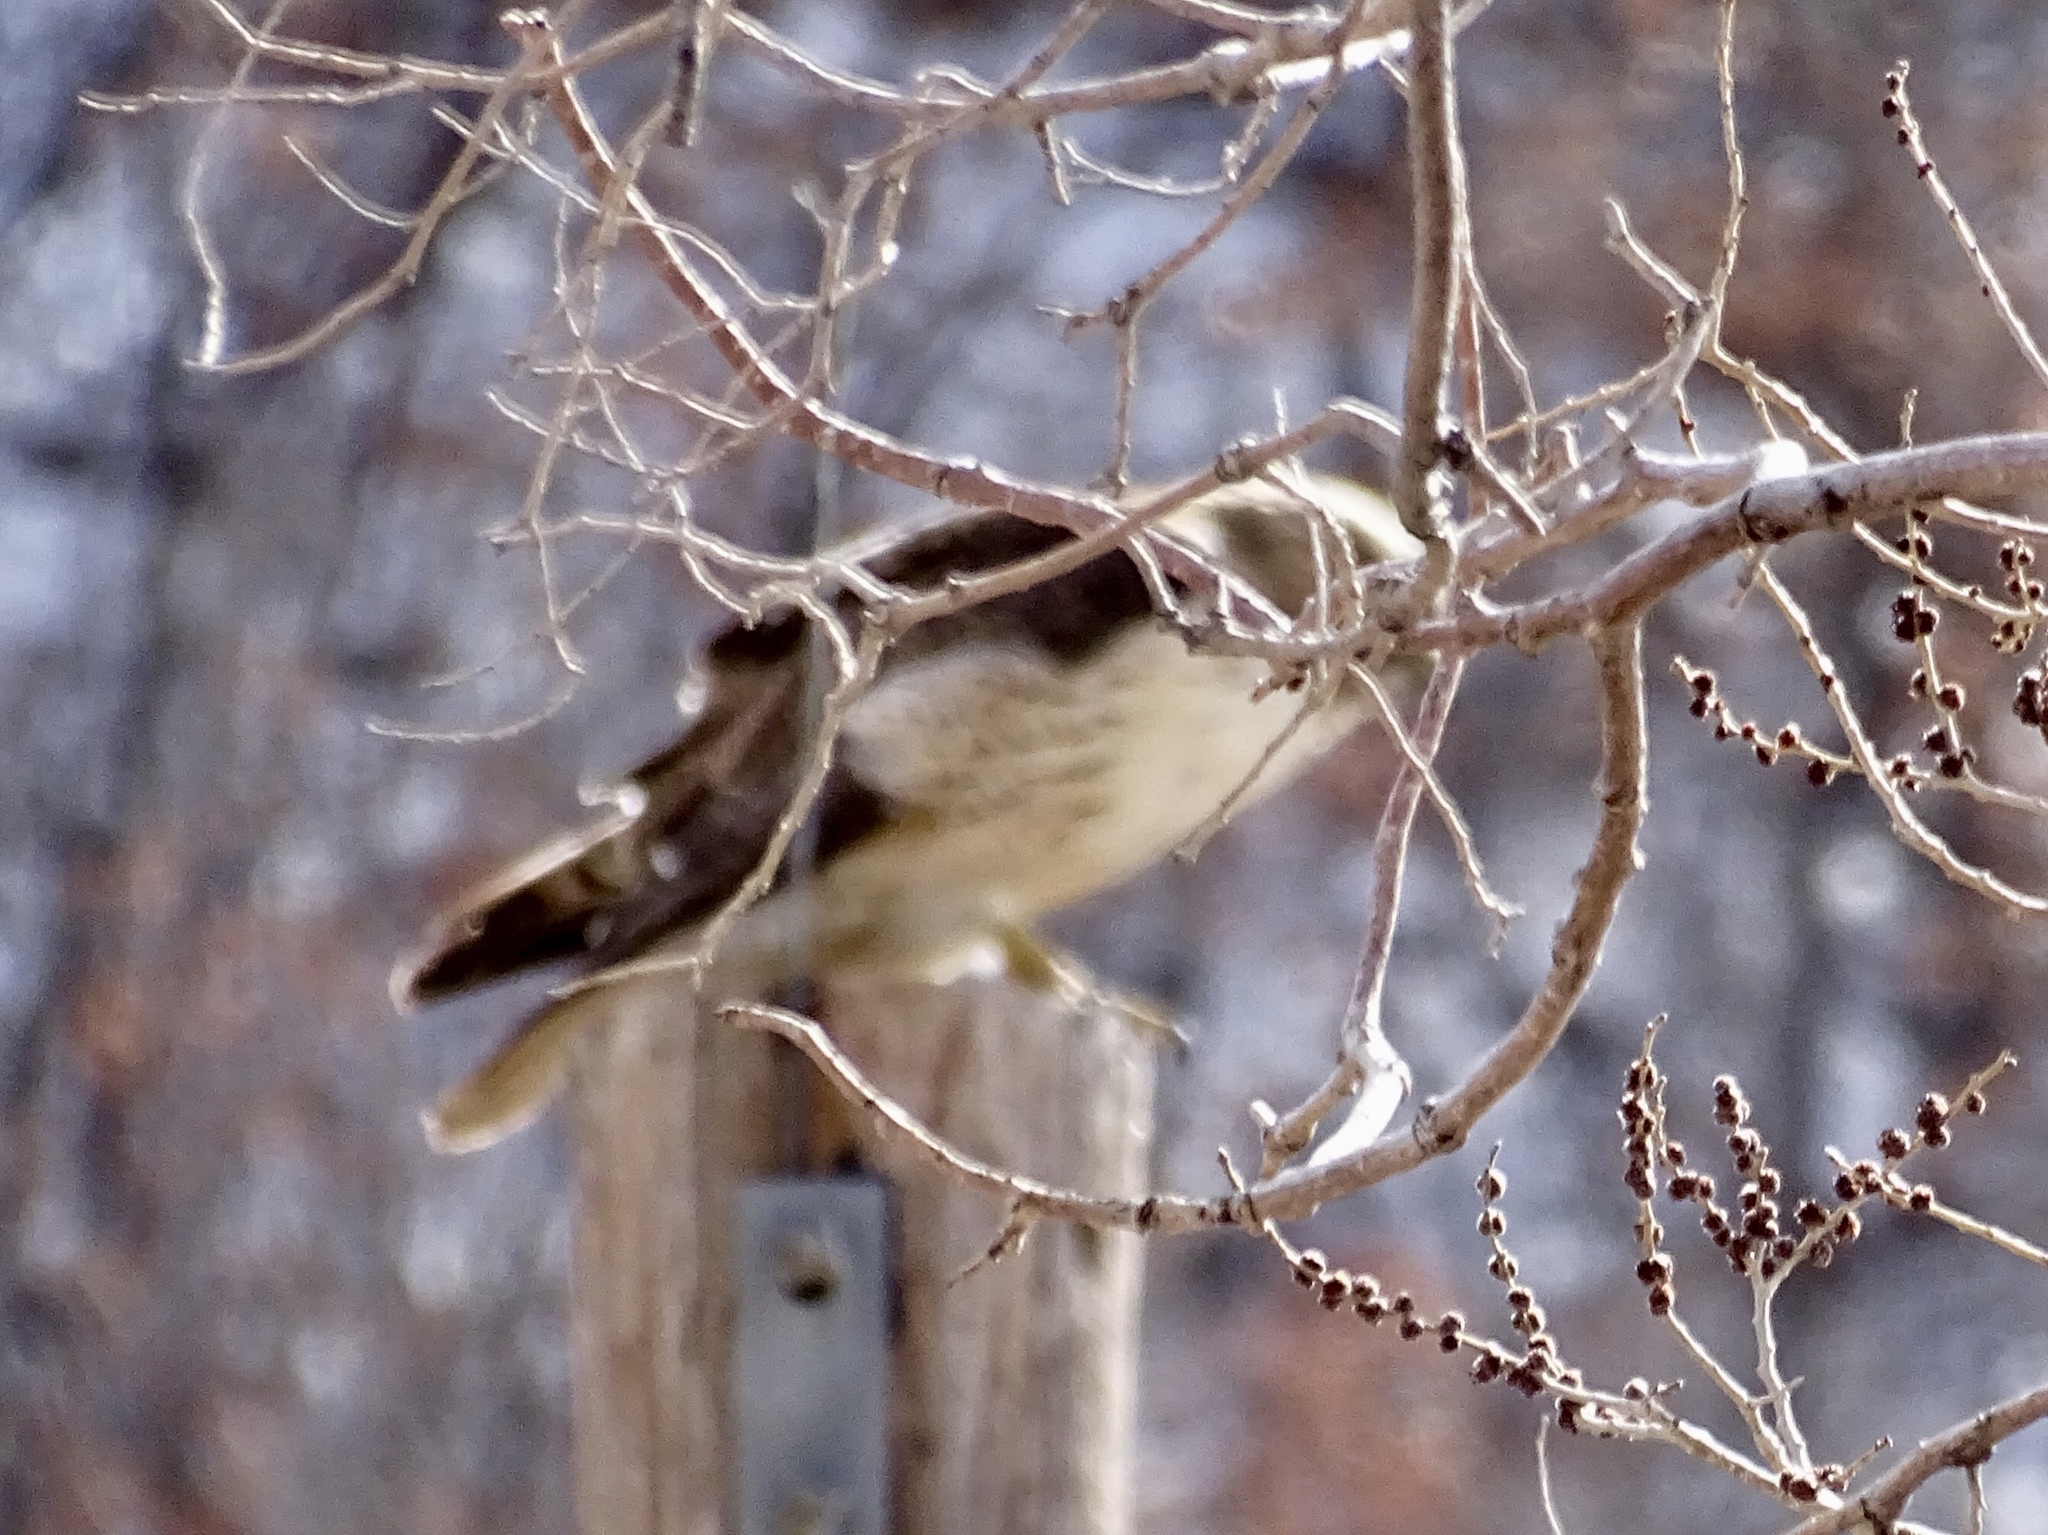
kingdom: Animalia
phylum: Chordata
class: Aves
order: Accipitriformes
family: Accipitridae
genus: Buteo
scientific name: Buteo jamaicensis
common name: Red-tailed hawk
